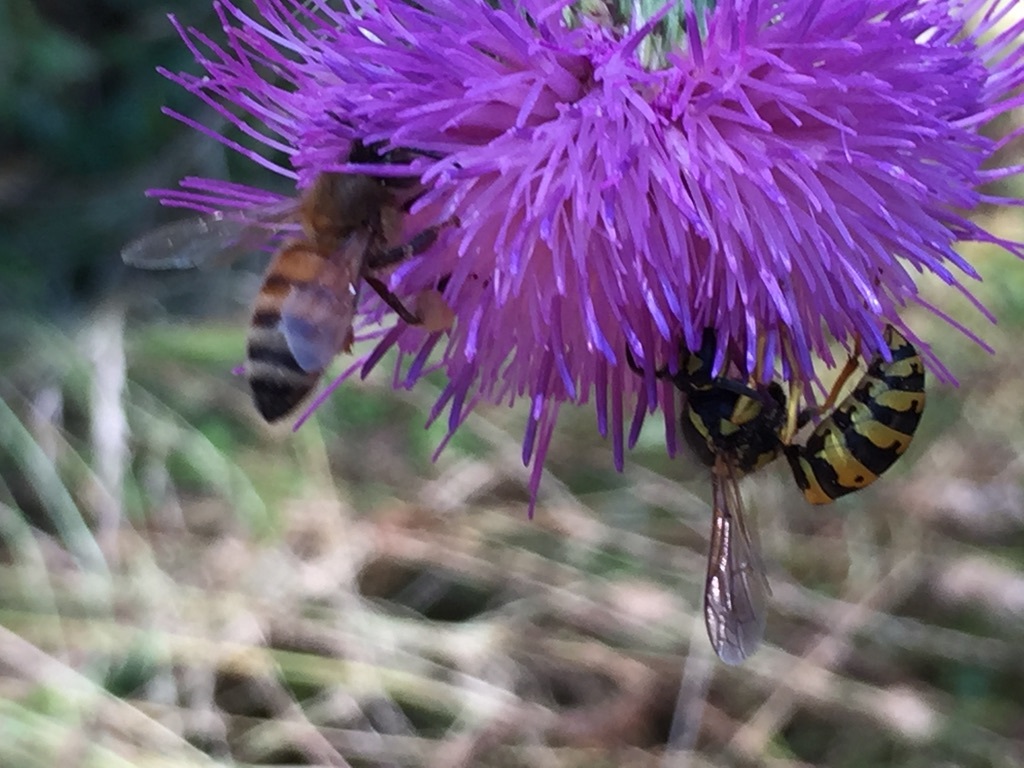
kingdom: Animalia
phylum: Arthropoda
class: Insecta
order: Hymenoptera
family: Vespidae
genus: Vespula
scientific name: Vespula pensylvanica
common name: Western yellowjacket
